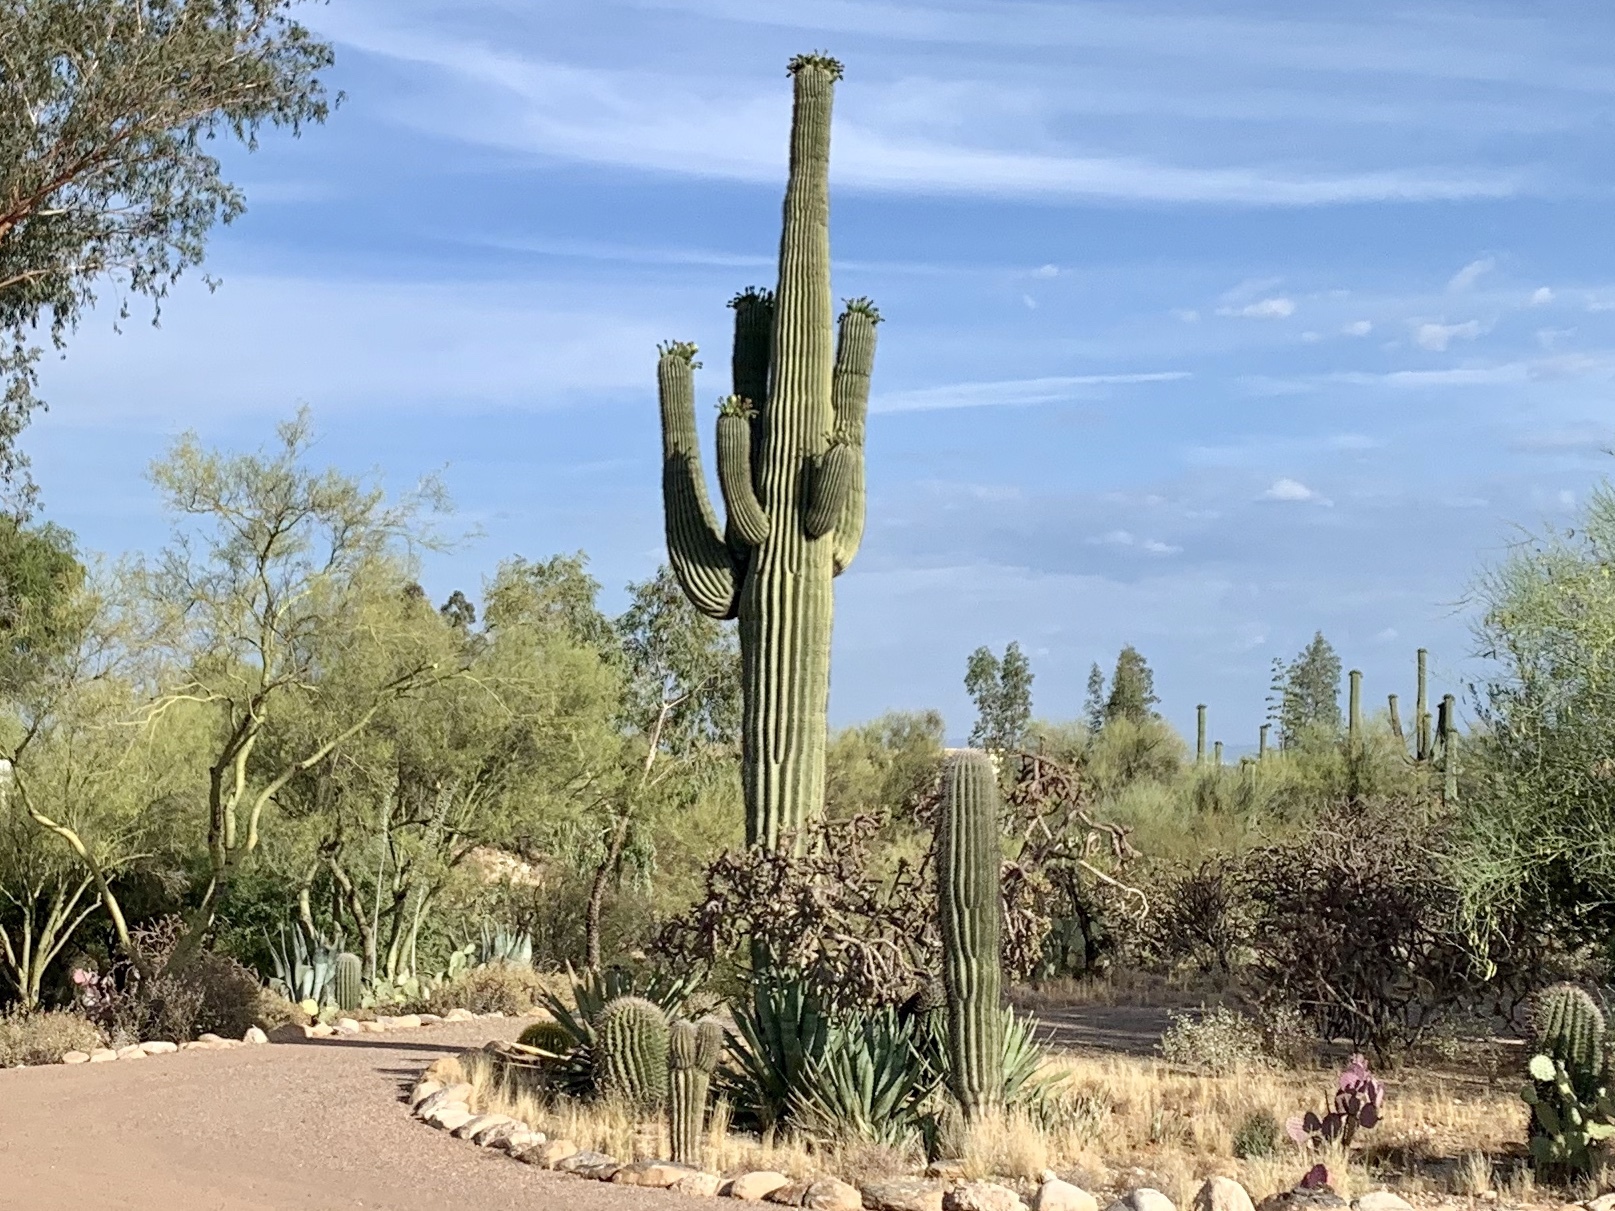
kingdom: Plantae
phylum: Tracheophyta
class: Magnoliopsida
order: Caryophyllales
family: Cactaceae
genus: Carnegiea
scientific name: Carnegiea gigantea
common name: Saguaro
